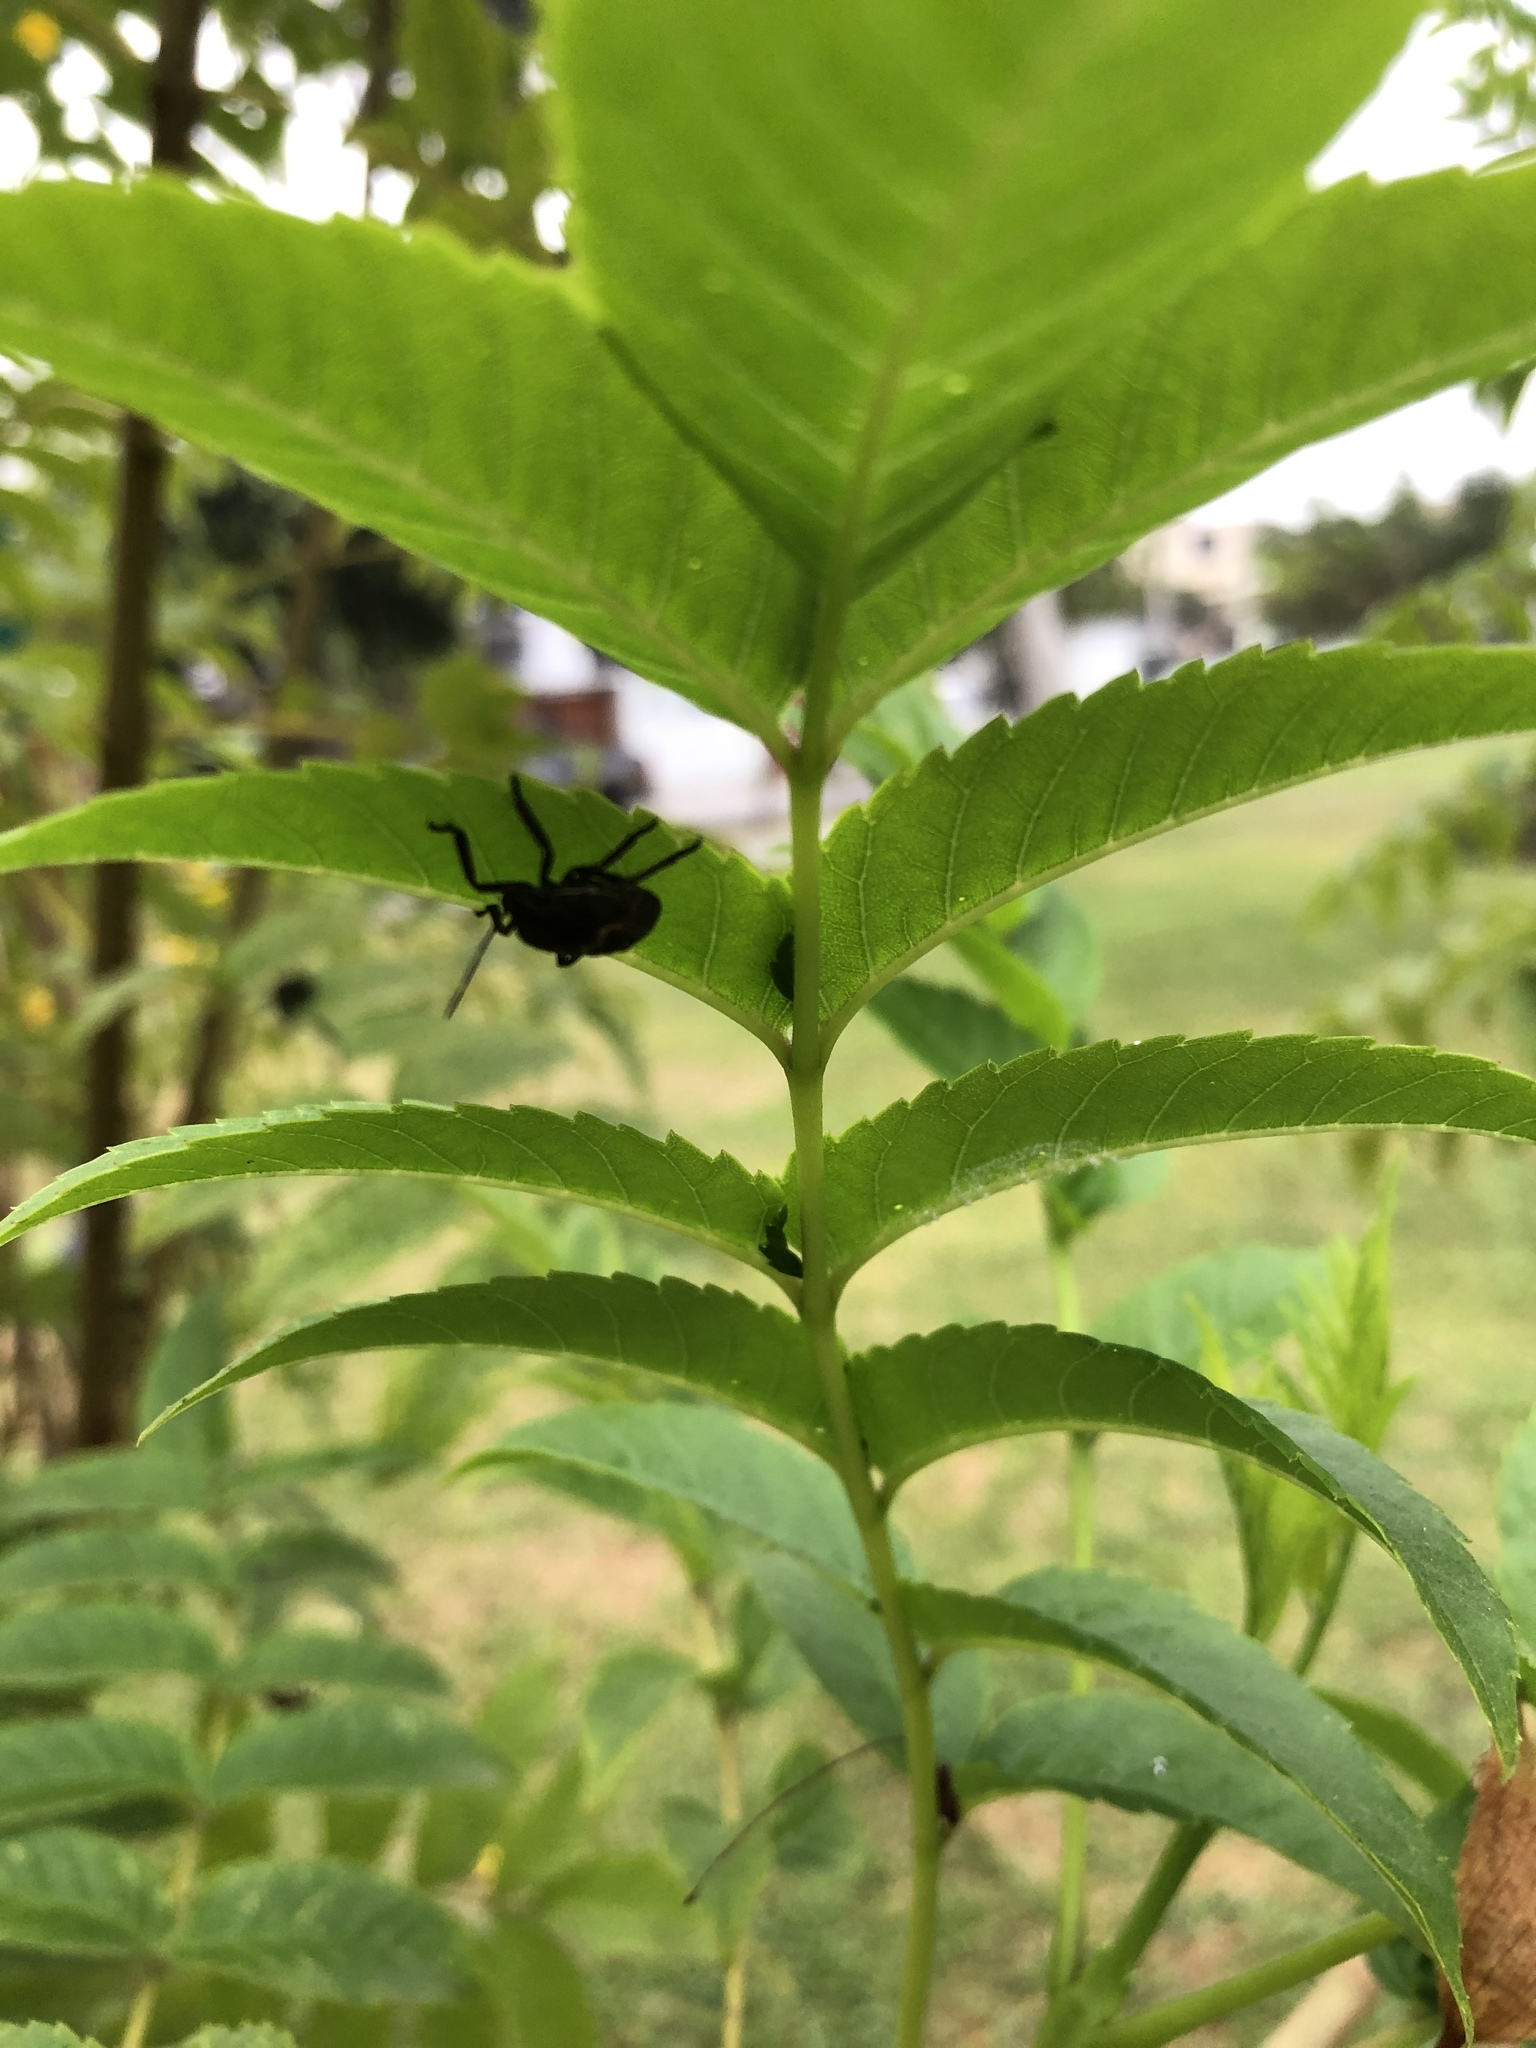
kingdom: Animalia
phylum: Arthropoda
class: Insecta
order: Hemiptera
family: Pentatomidae
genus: Pellaea
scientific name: Pellaea stictica
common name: Stink bug
